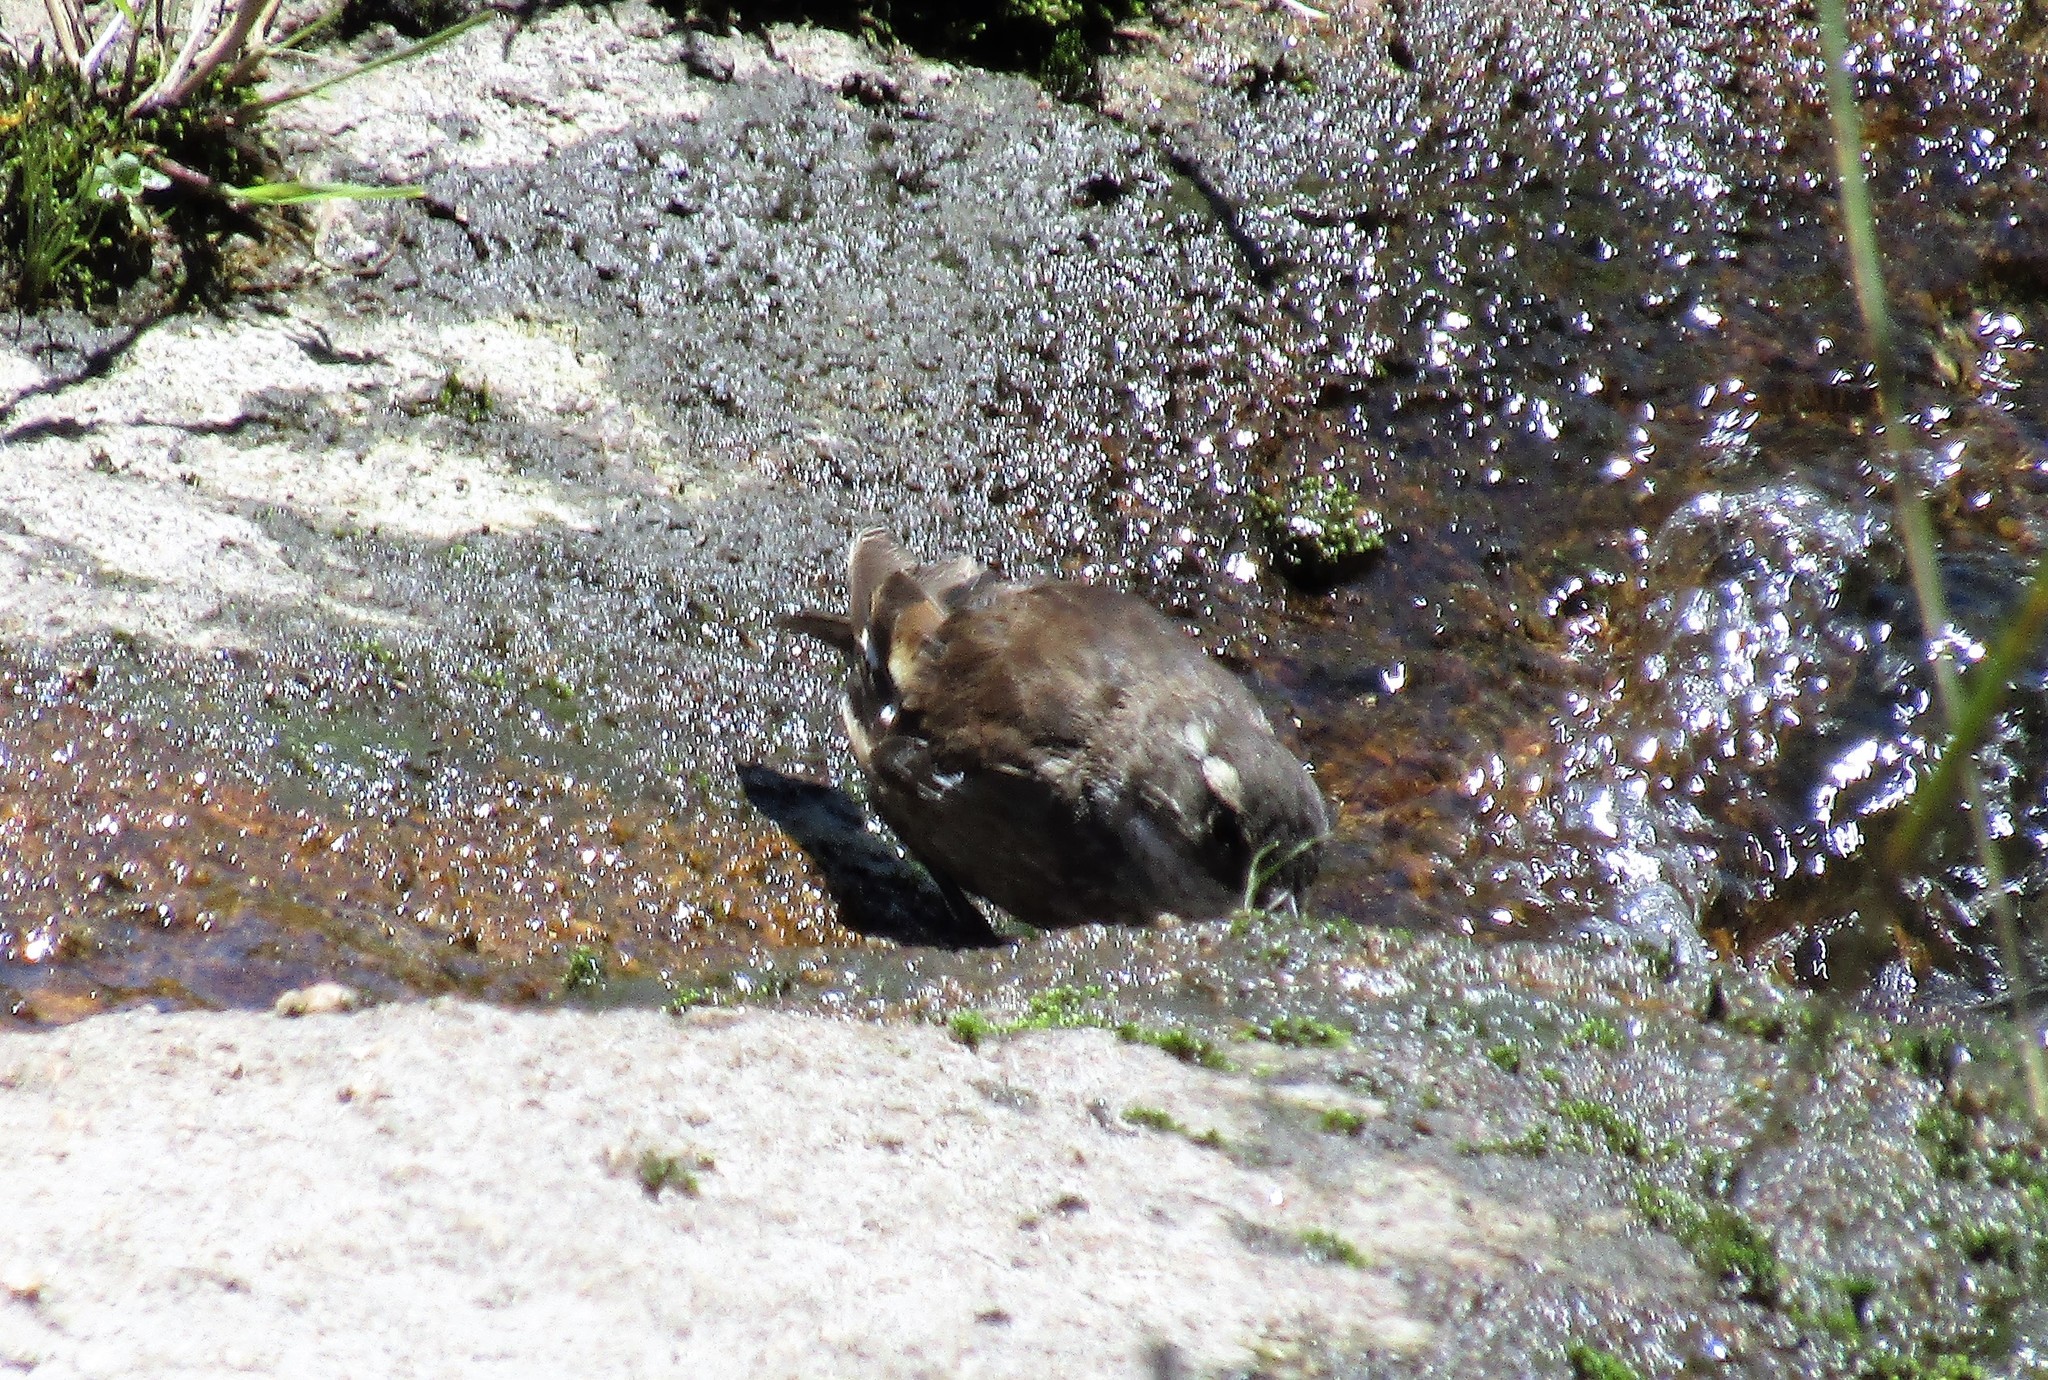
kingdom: Animalia
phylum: Chordata
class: Aves
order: Passeriformes
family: Furnariidae
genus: Cinclodes
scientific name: Cinclodes olrogi
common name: Olrog's cinclodes
